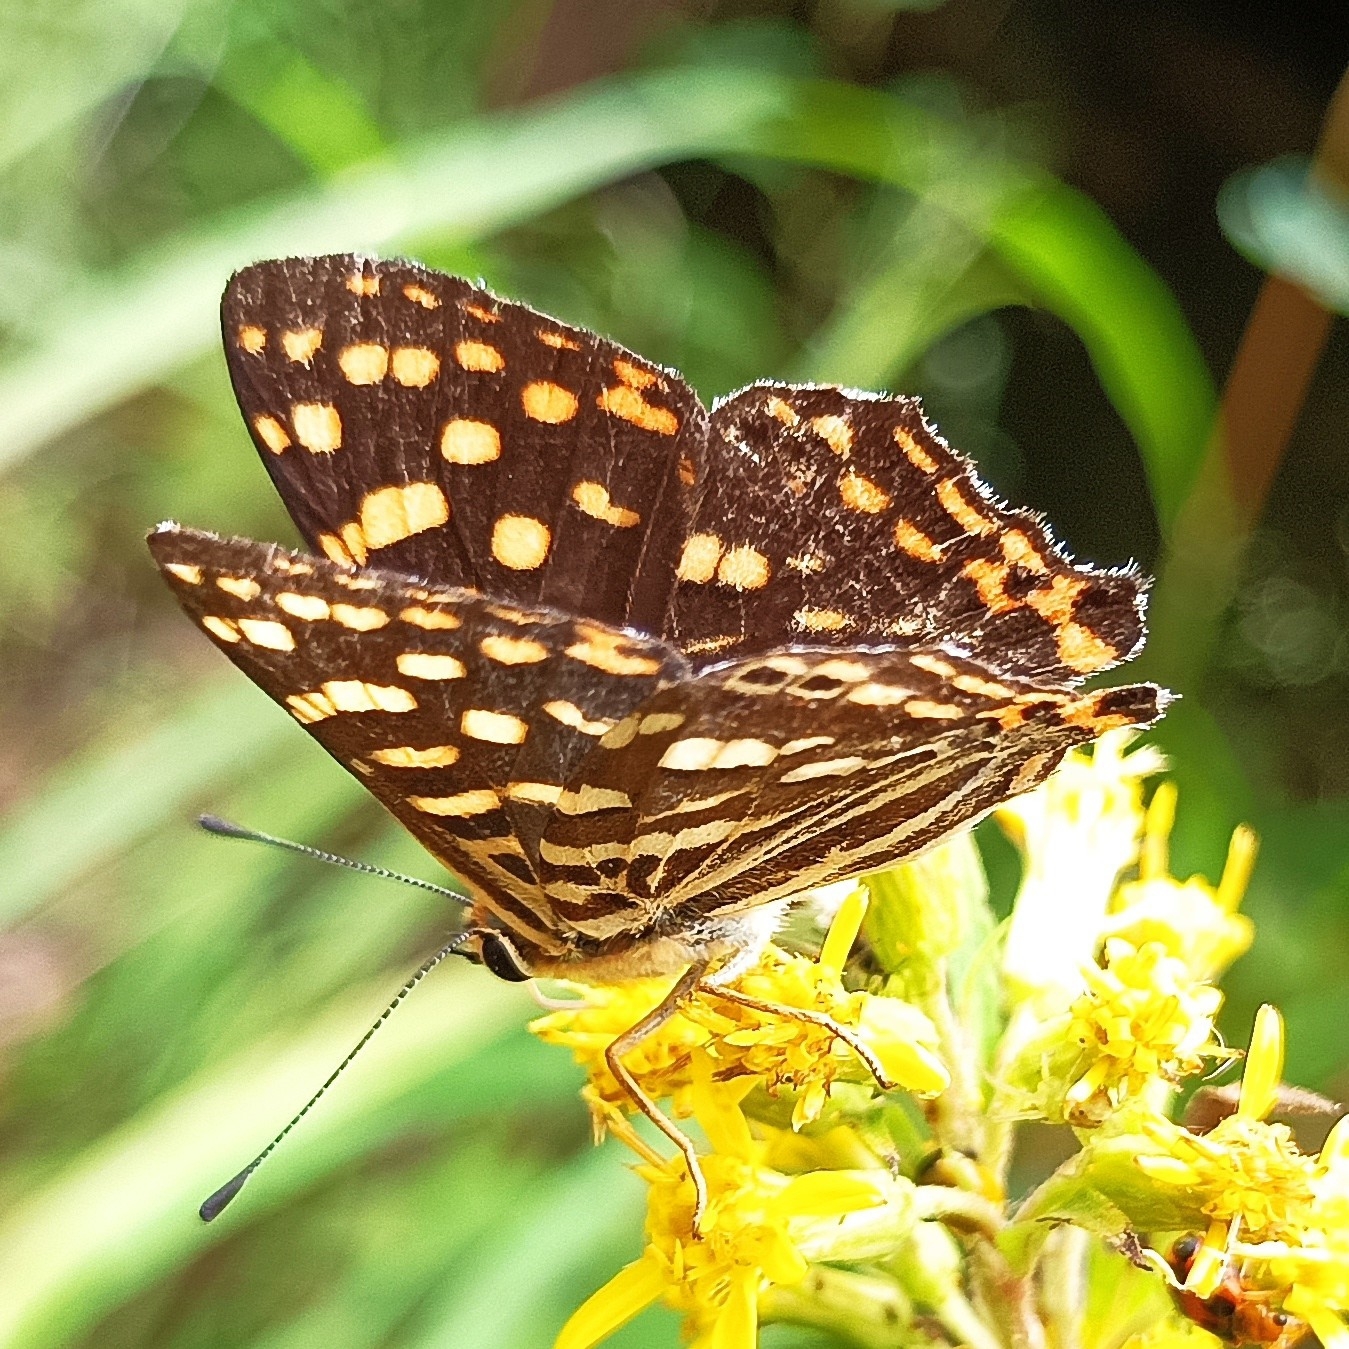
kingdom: Animalia
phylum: Arthropoda
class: Insecta
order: Lepidoptera
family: Lycaenidae
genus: Dodona
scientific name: Dodona durga
